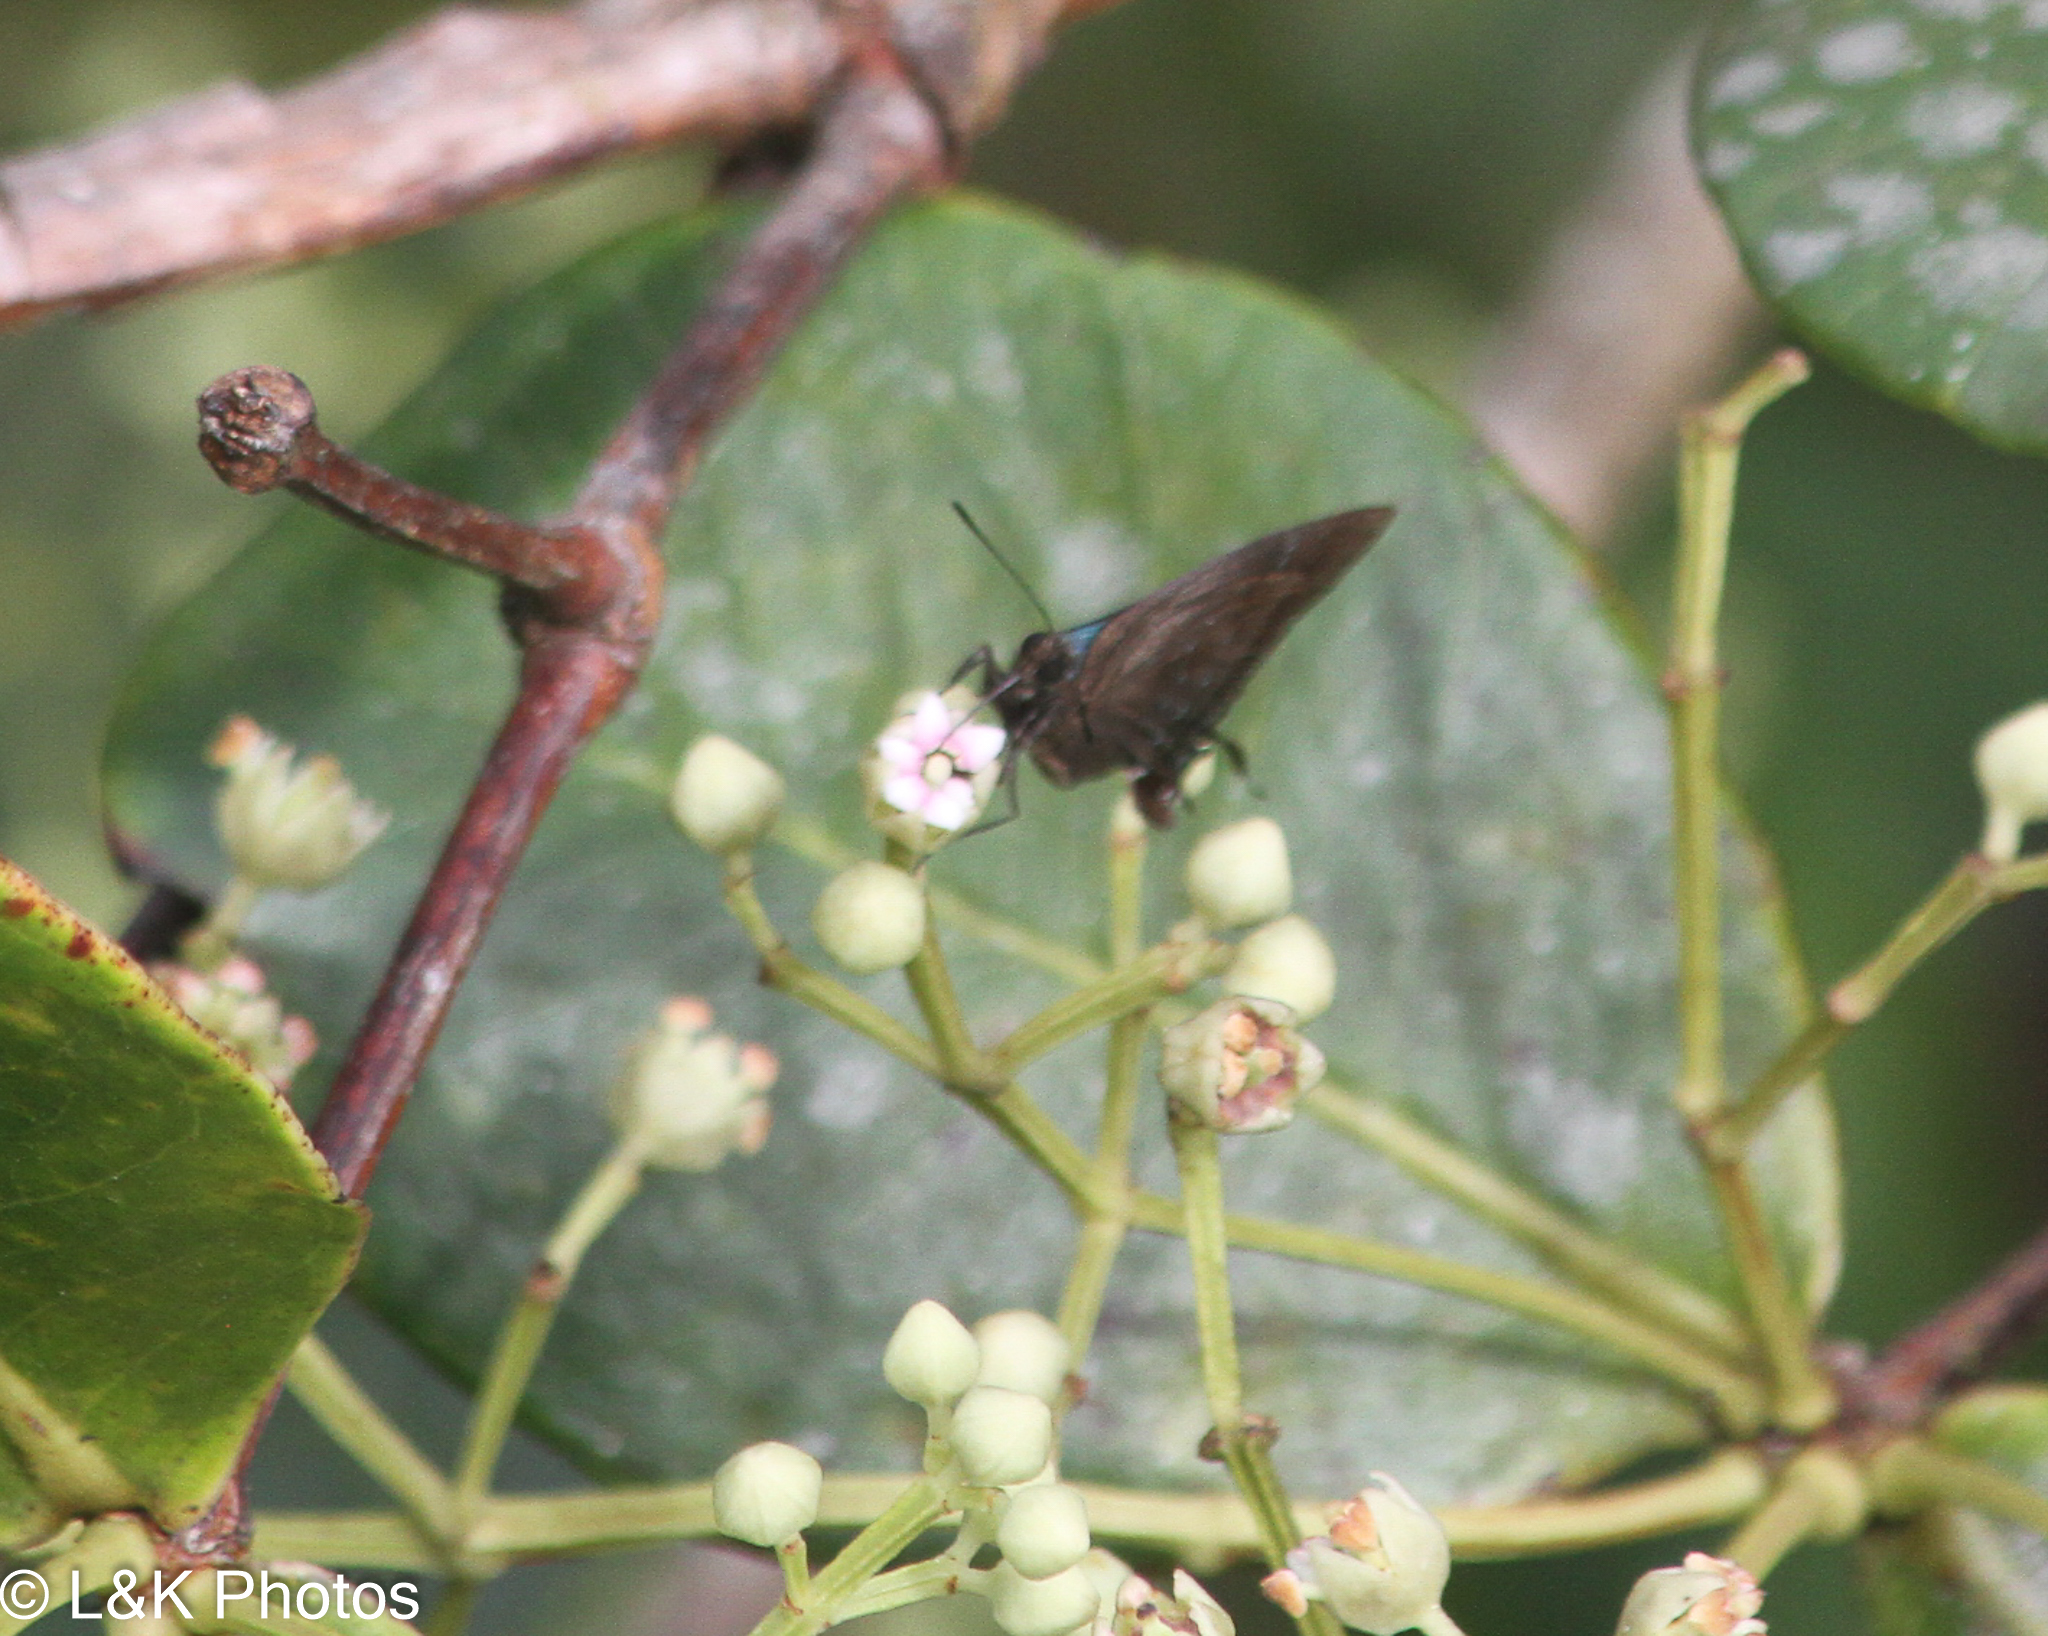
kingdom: Animalia
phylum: Arthropoda
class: Insecta
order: Lepidoptera
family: Lycaenidae
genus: Denivia
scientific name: Denivia augustinula
